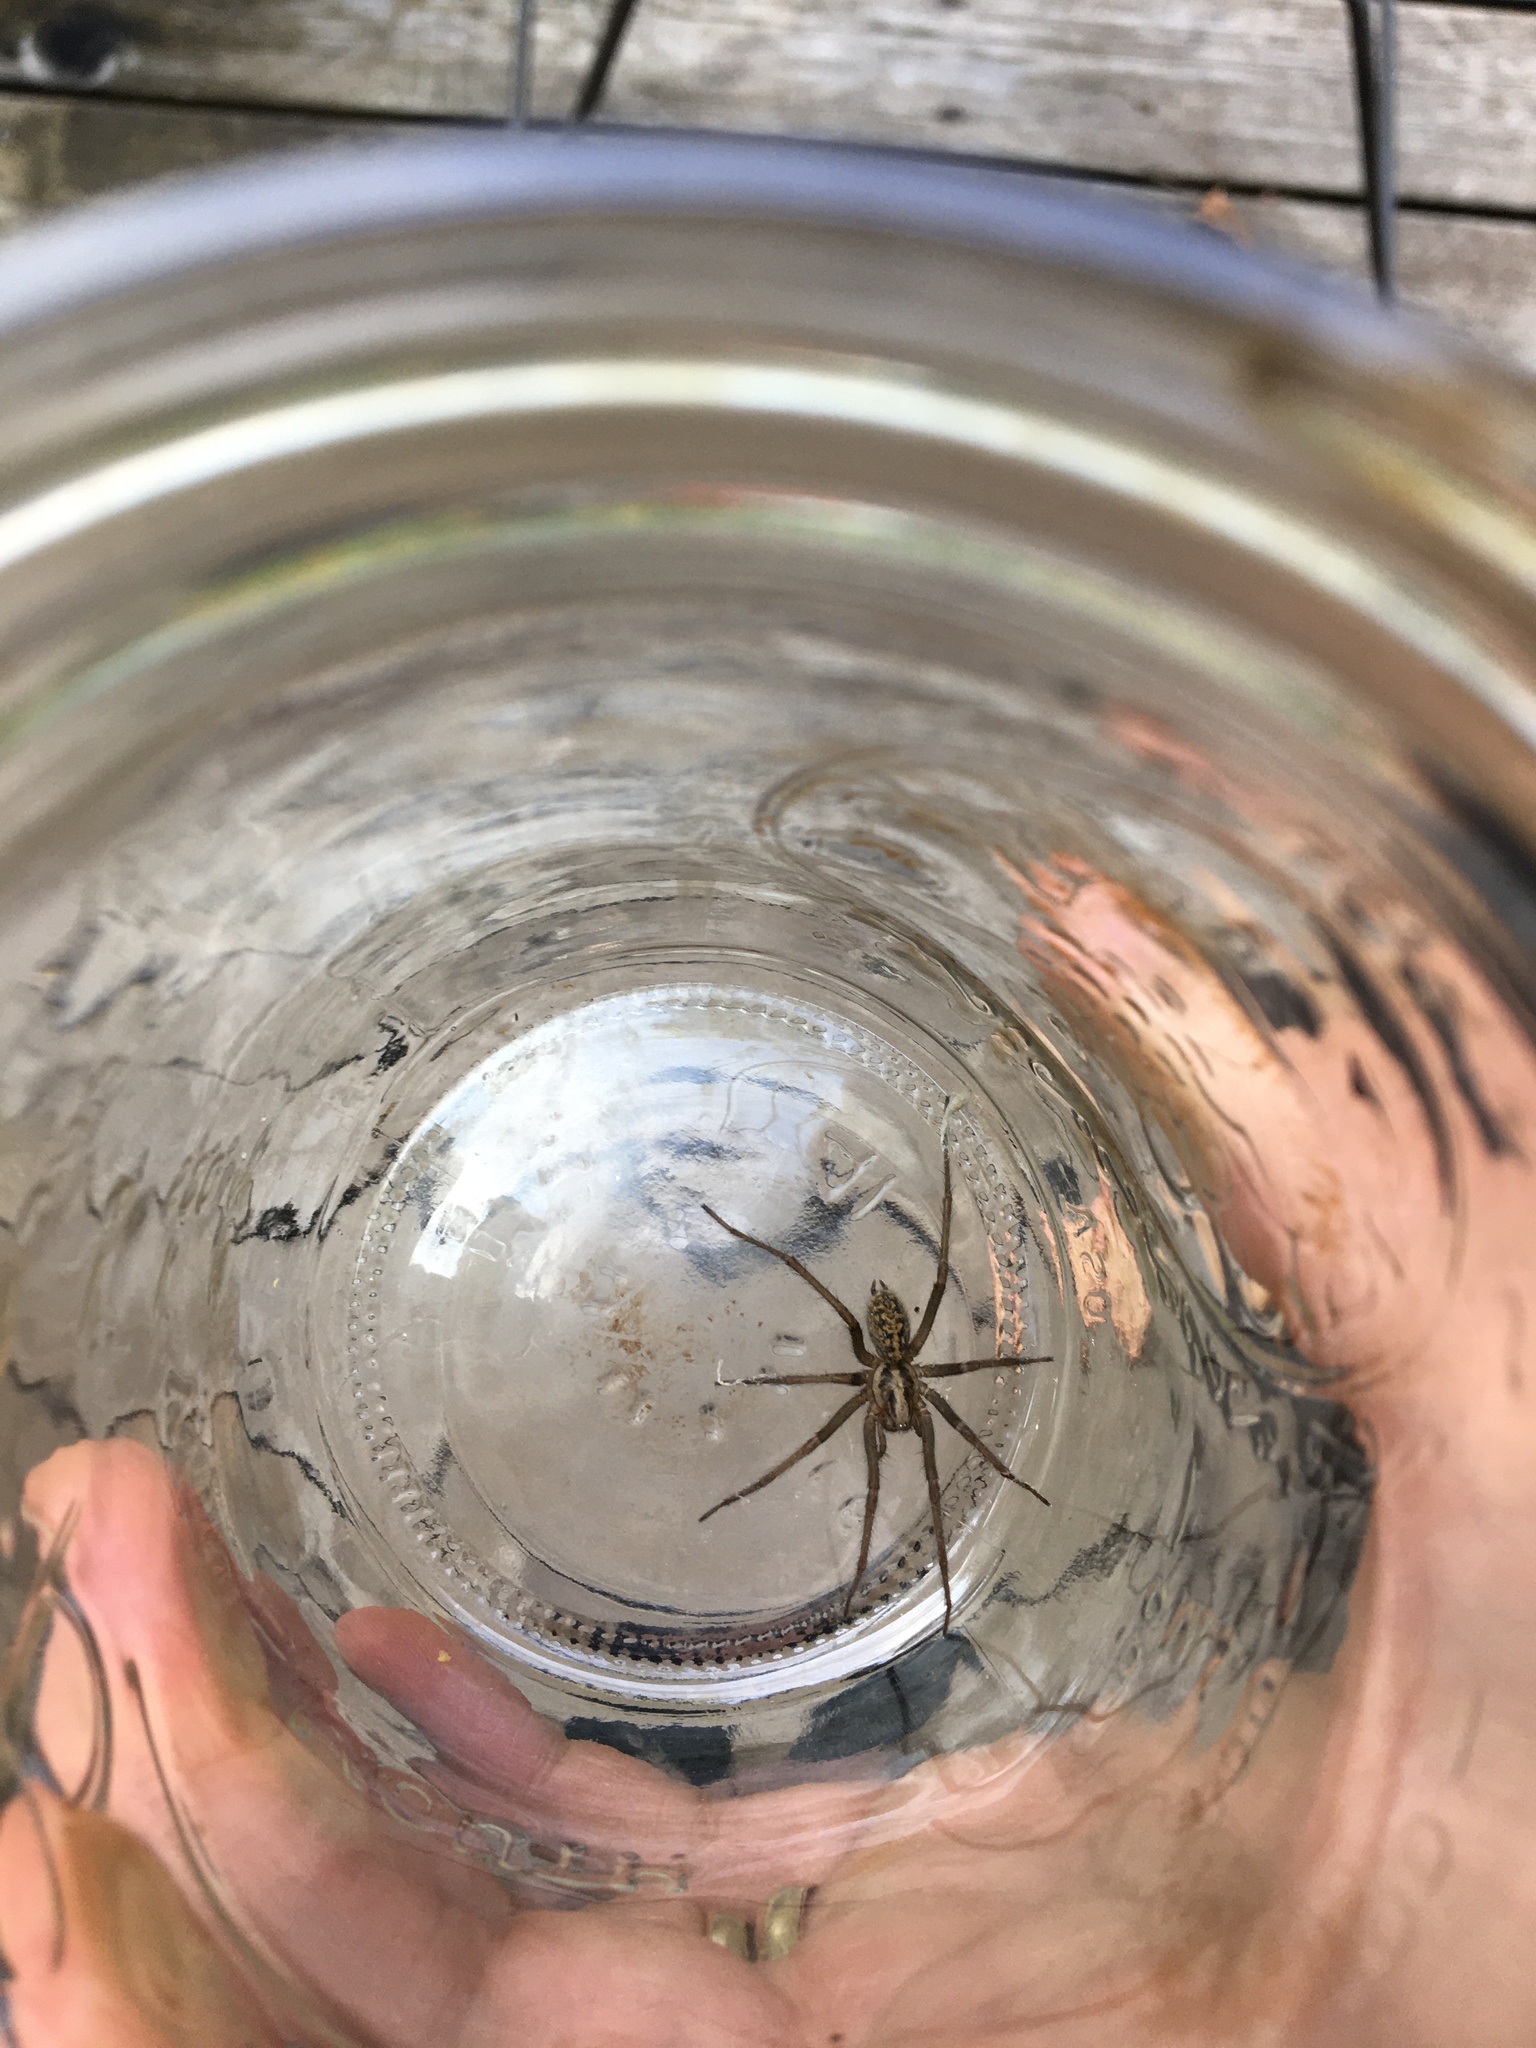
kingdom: Animalia
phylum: Arthropoda
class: Arachnida
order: Araneae
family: Agelenidae
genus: Eratigena
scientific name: Eratigena duellica
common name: Giant house spider
